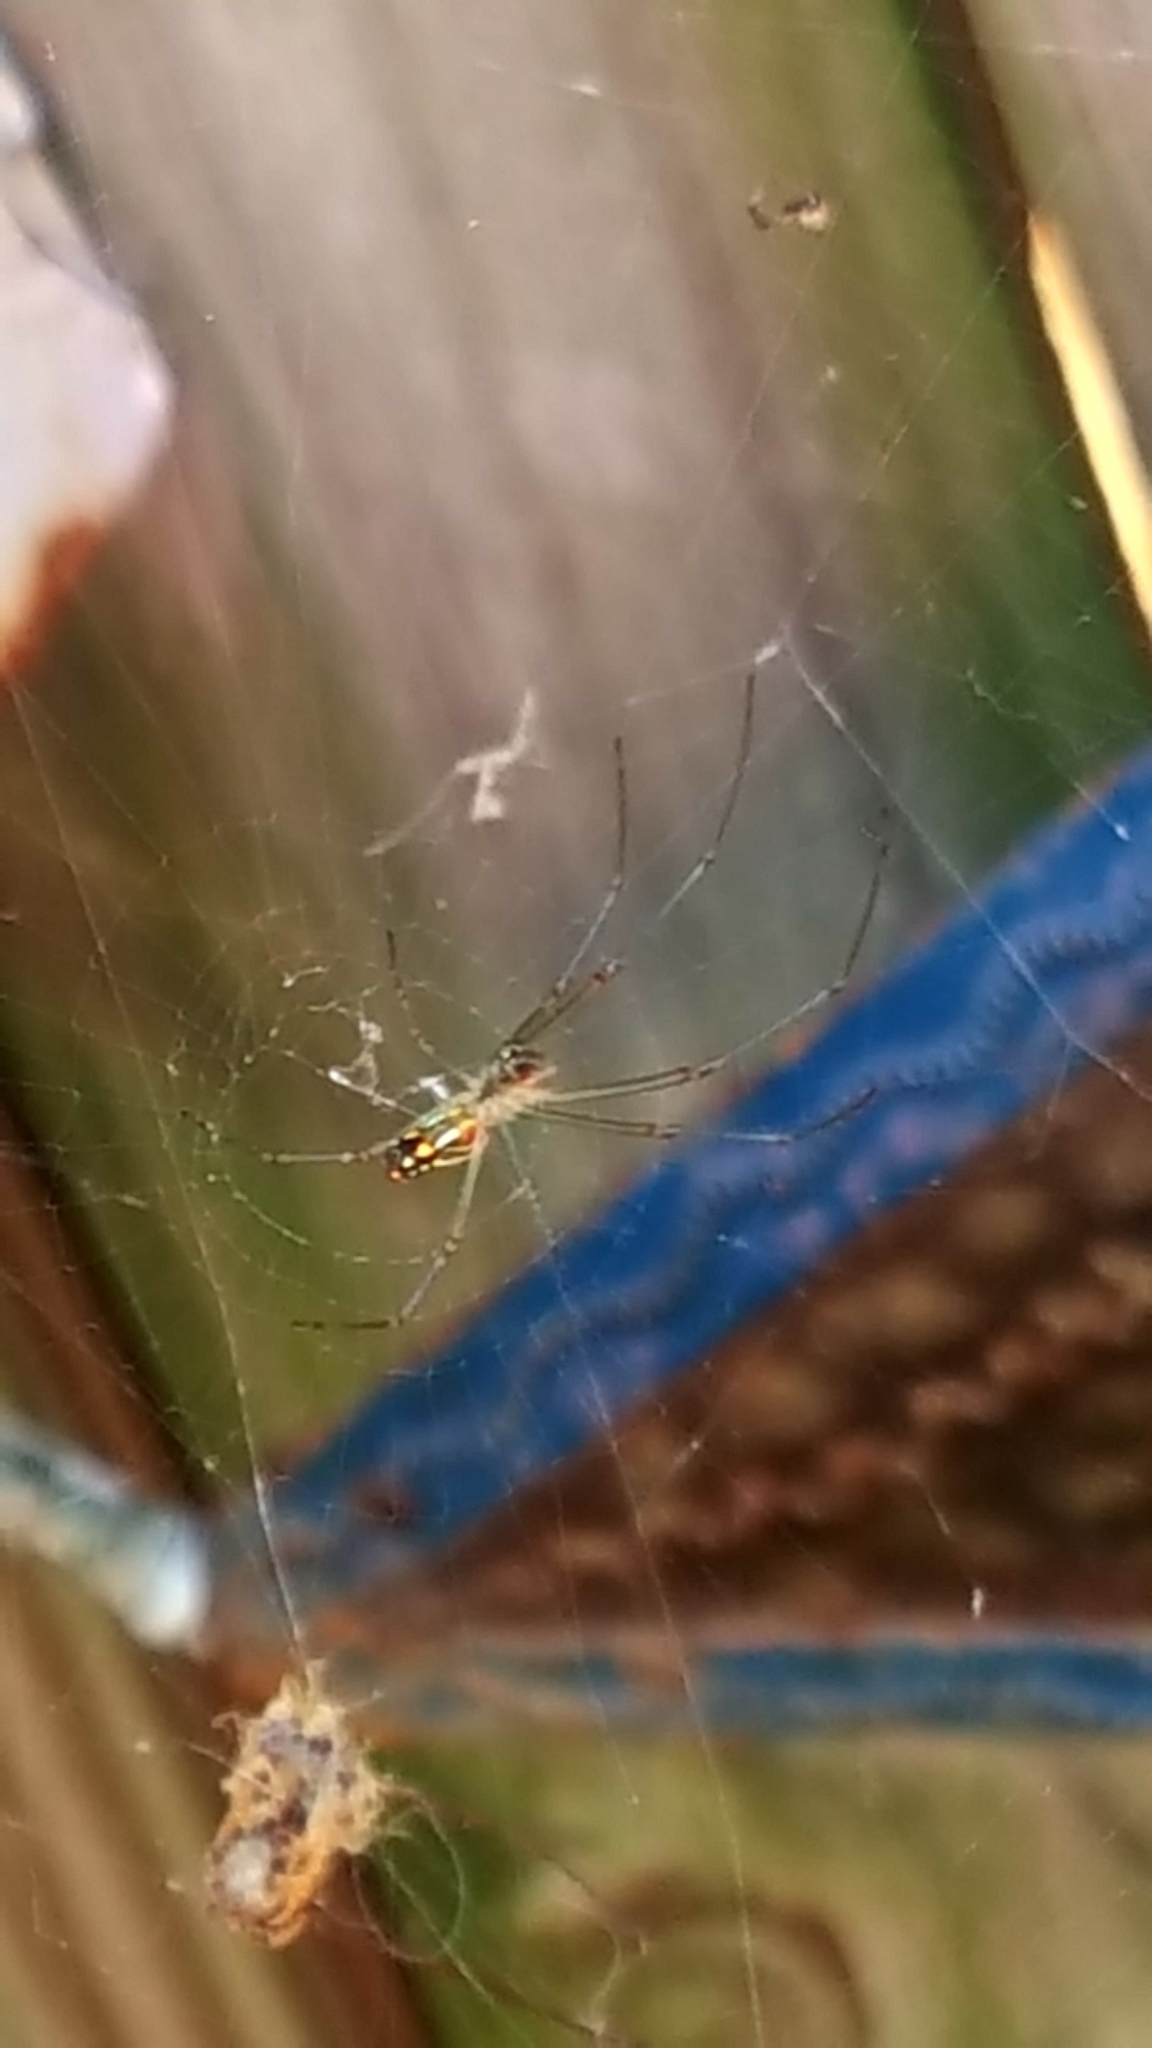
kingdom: Animalia
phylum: Arthropoda
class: Arachnida
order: Araneae
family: Tetragnathidae
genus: Leucauge
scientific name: Leucauge argyra
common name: Longjawed orb weavers
